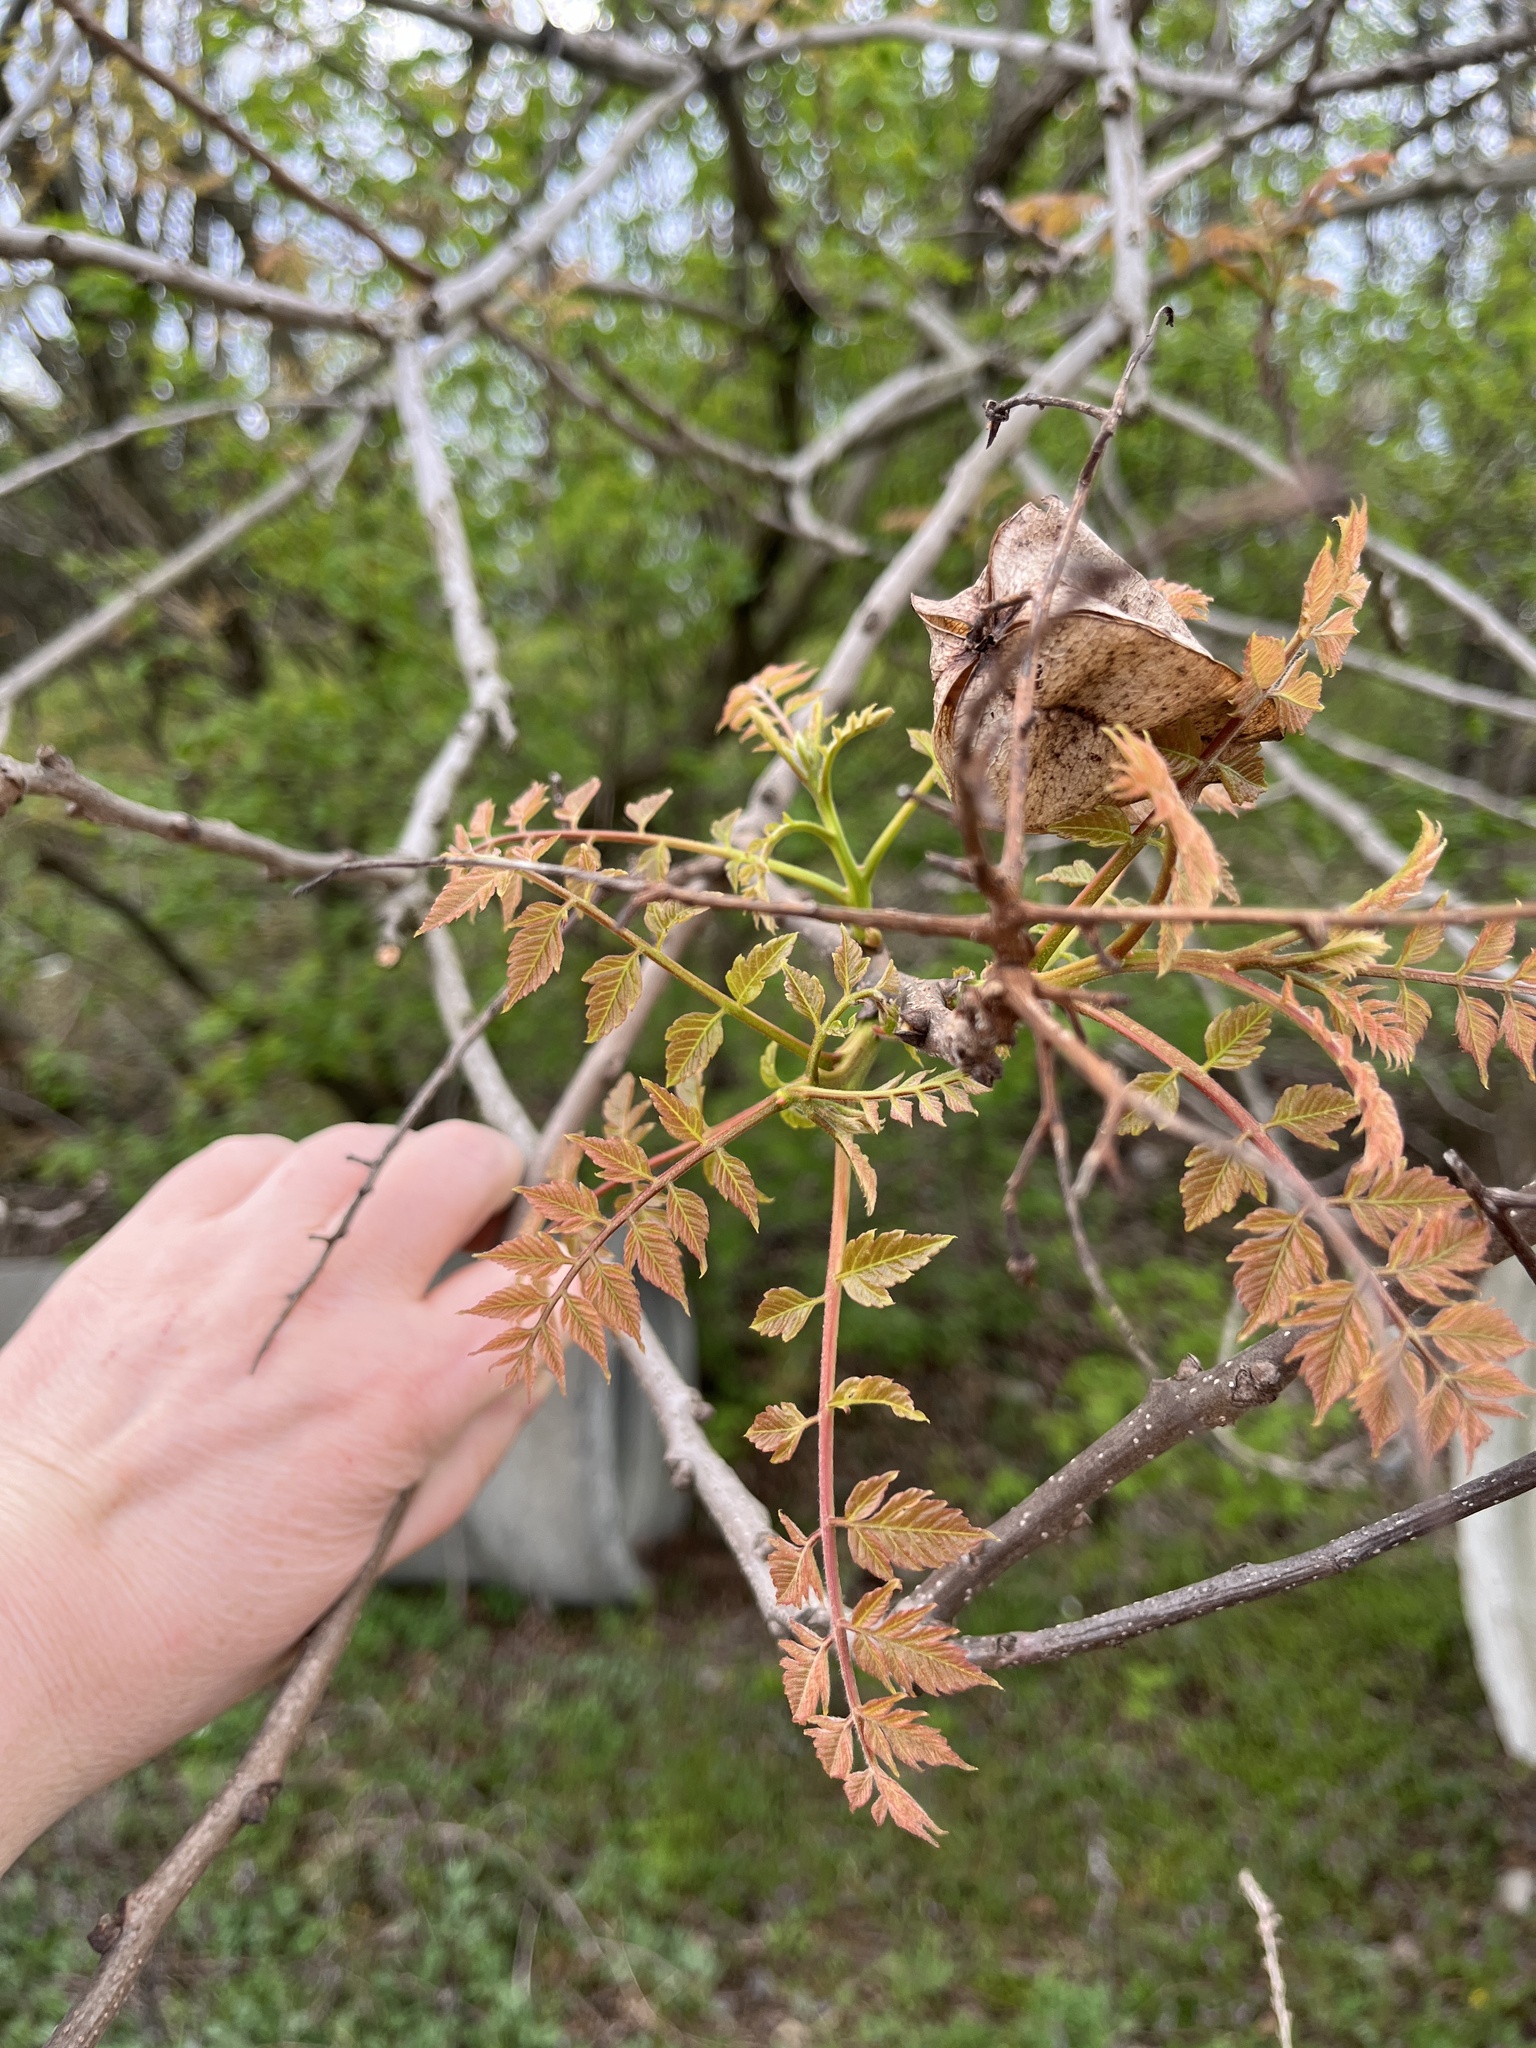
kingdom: Plantae
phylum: Tracheophyta
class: Magnoliopsida
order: Sapindales
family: Sapindaceae
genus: Koelreuteria
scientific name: Koelreuteria paniculata
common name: Pride-of-india
